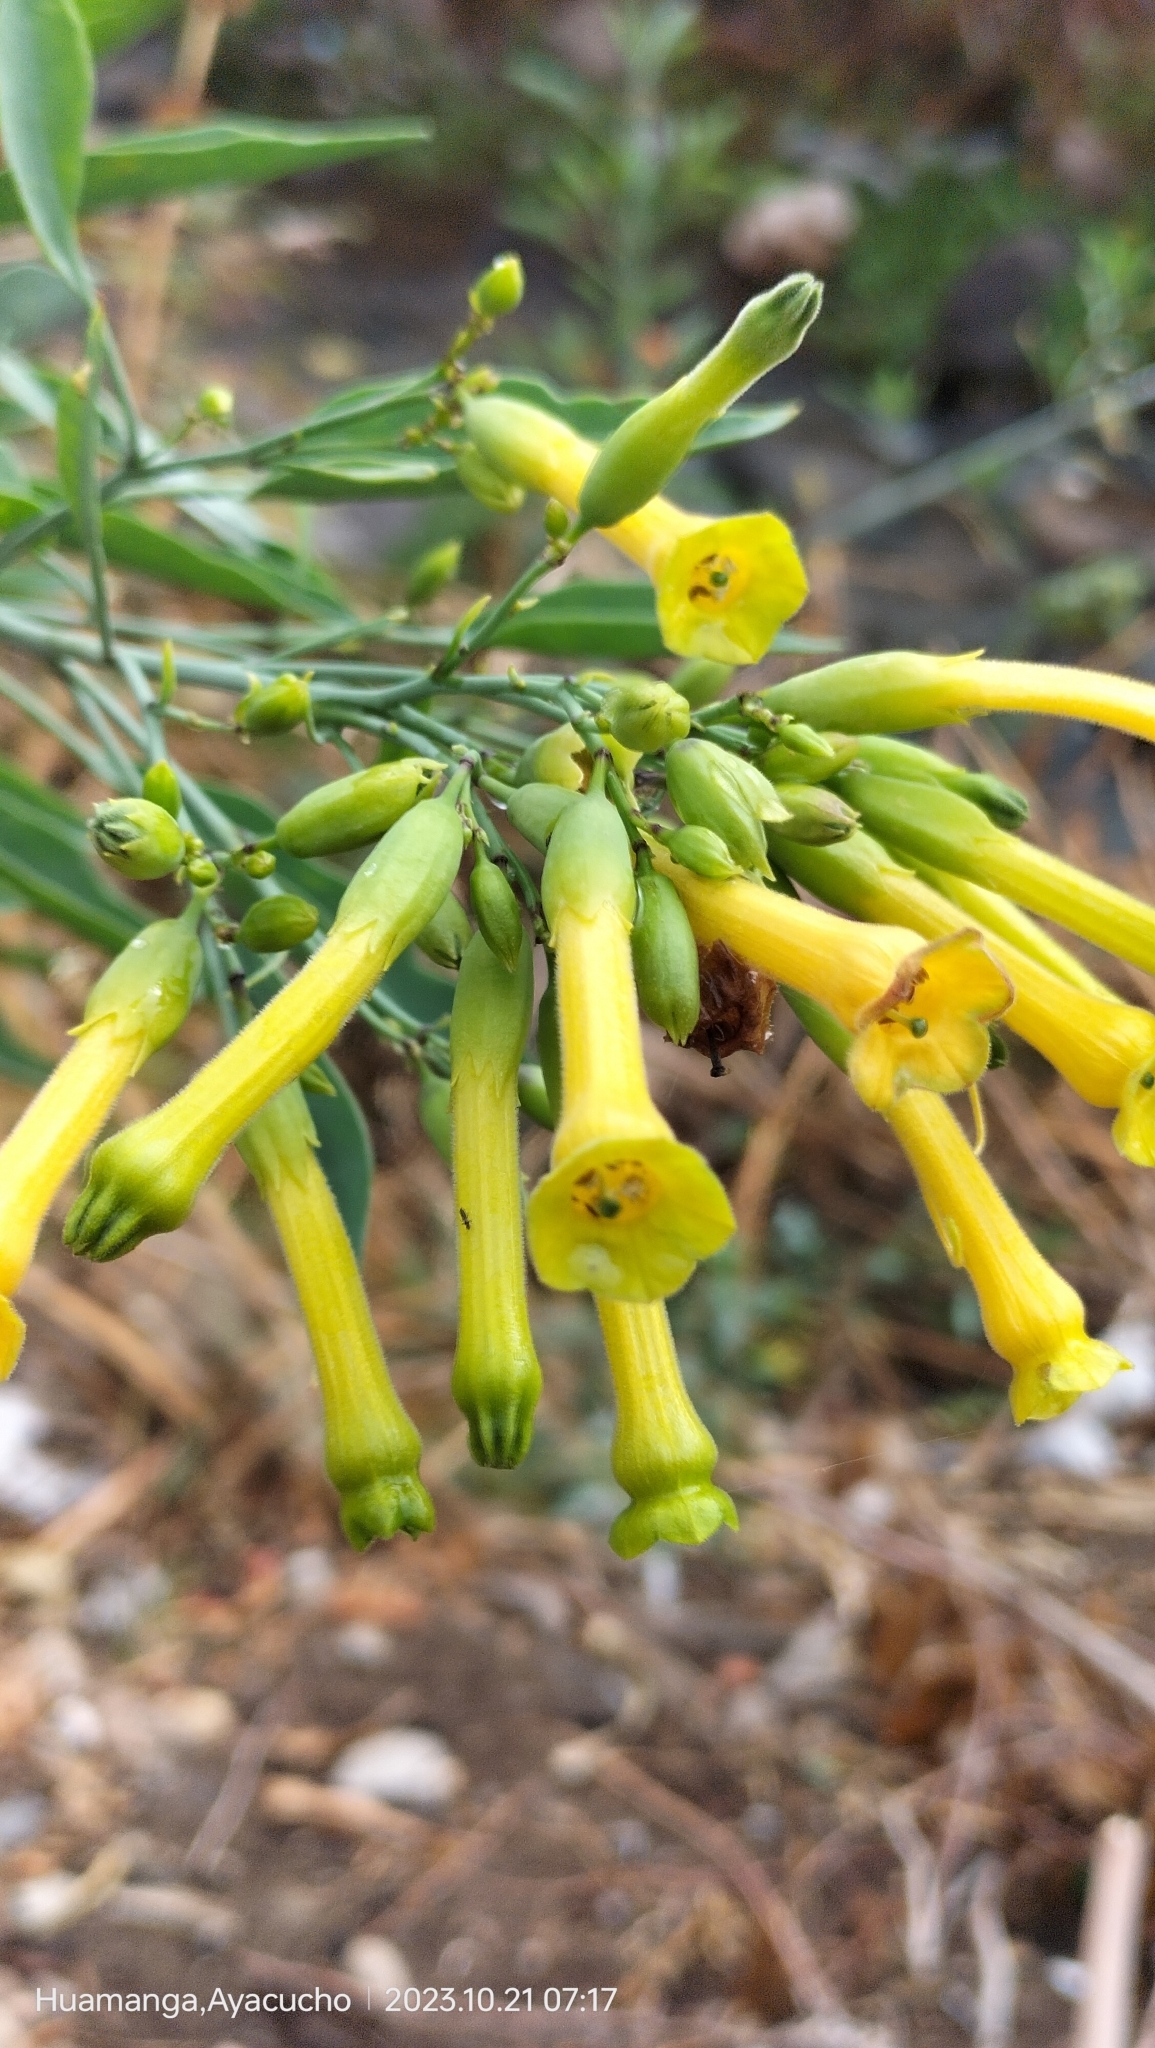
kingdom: Plantae
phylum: Tracheophyta
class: Magnoliopsida
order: Solanales
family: Solanaceae
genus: Nicotiana
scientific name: Nicotiana glauca
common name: Tree tobacco
